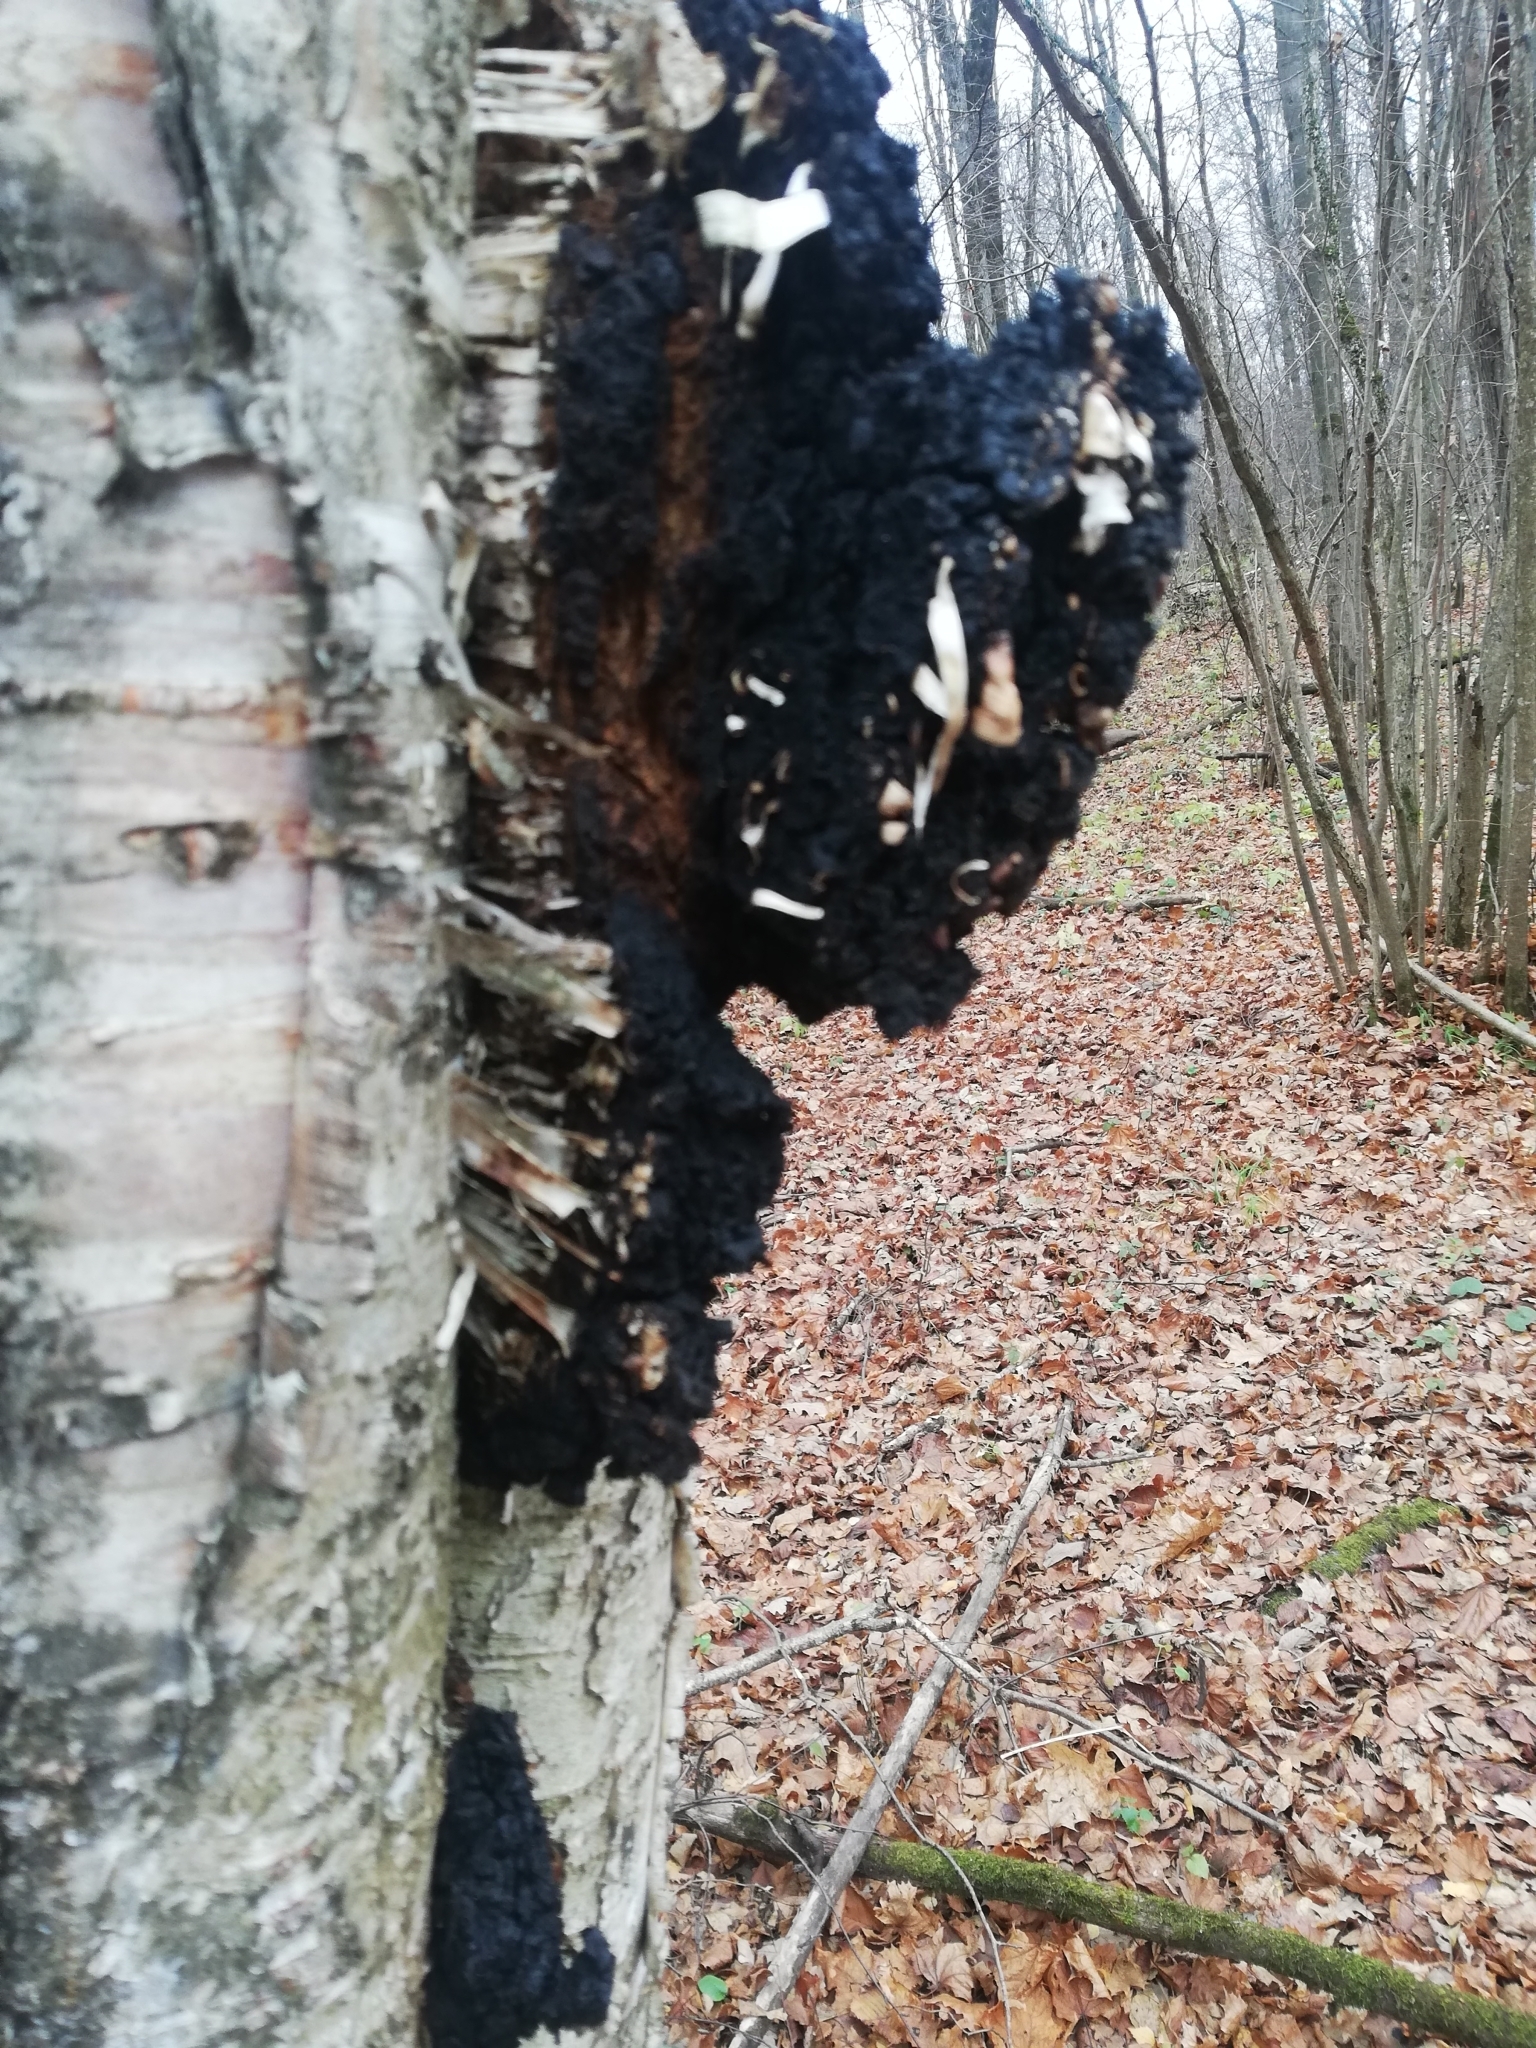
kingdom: Fungi
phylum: Basidiomycota
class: Agaricomycetes
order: Hymenochaetales
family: Hymenochaetaceae
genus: Inonotus
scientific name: Inonotus obliquus
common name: Chaga
